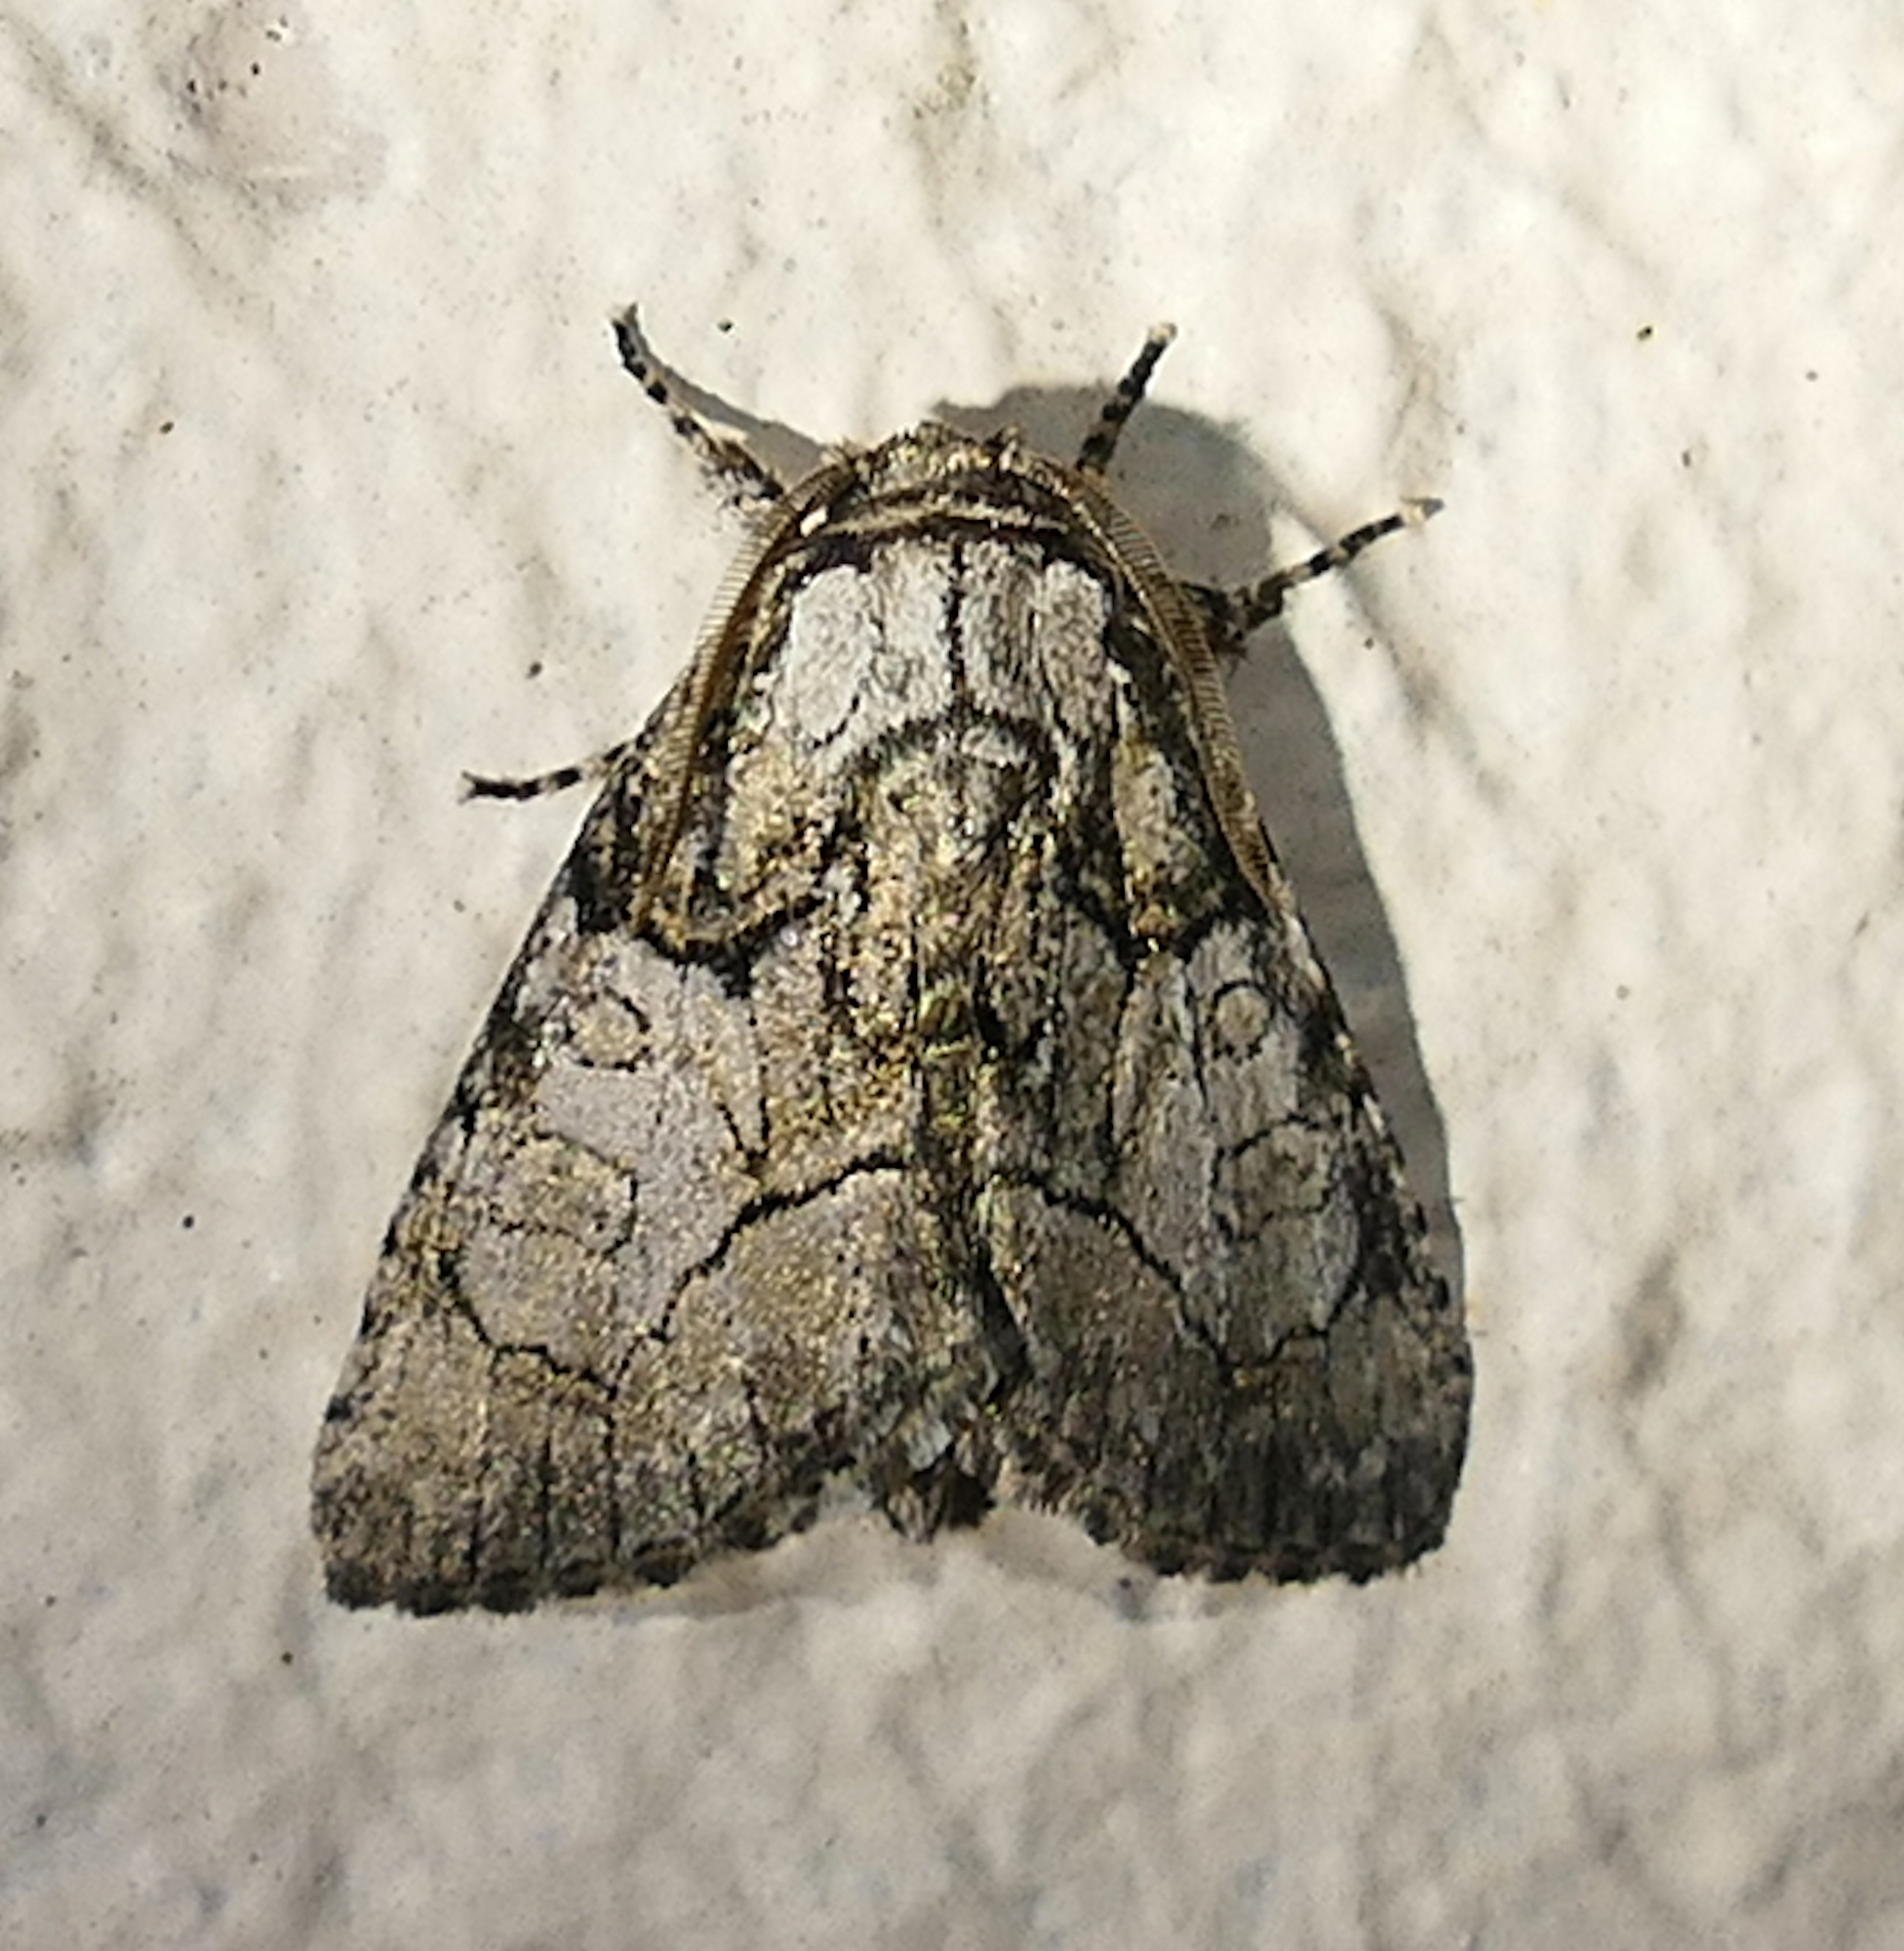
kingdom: Animalia
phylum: Arthropoda
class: Insecta
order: Lepidoptera
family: Noctuidae
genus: Raphia
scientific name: Raphia frater
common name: Brother
